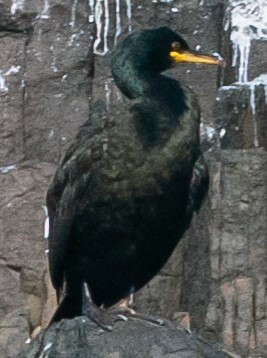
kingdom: Animalia
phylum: Chordata
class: Aves
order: Suliformes
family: Phalacrocoracidae
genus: Phalacrocorax
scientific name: Phalacrocorax aristotelis
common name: European shag
